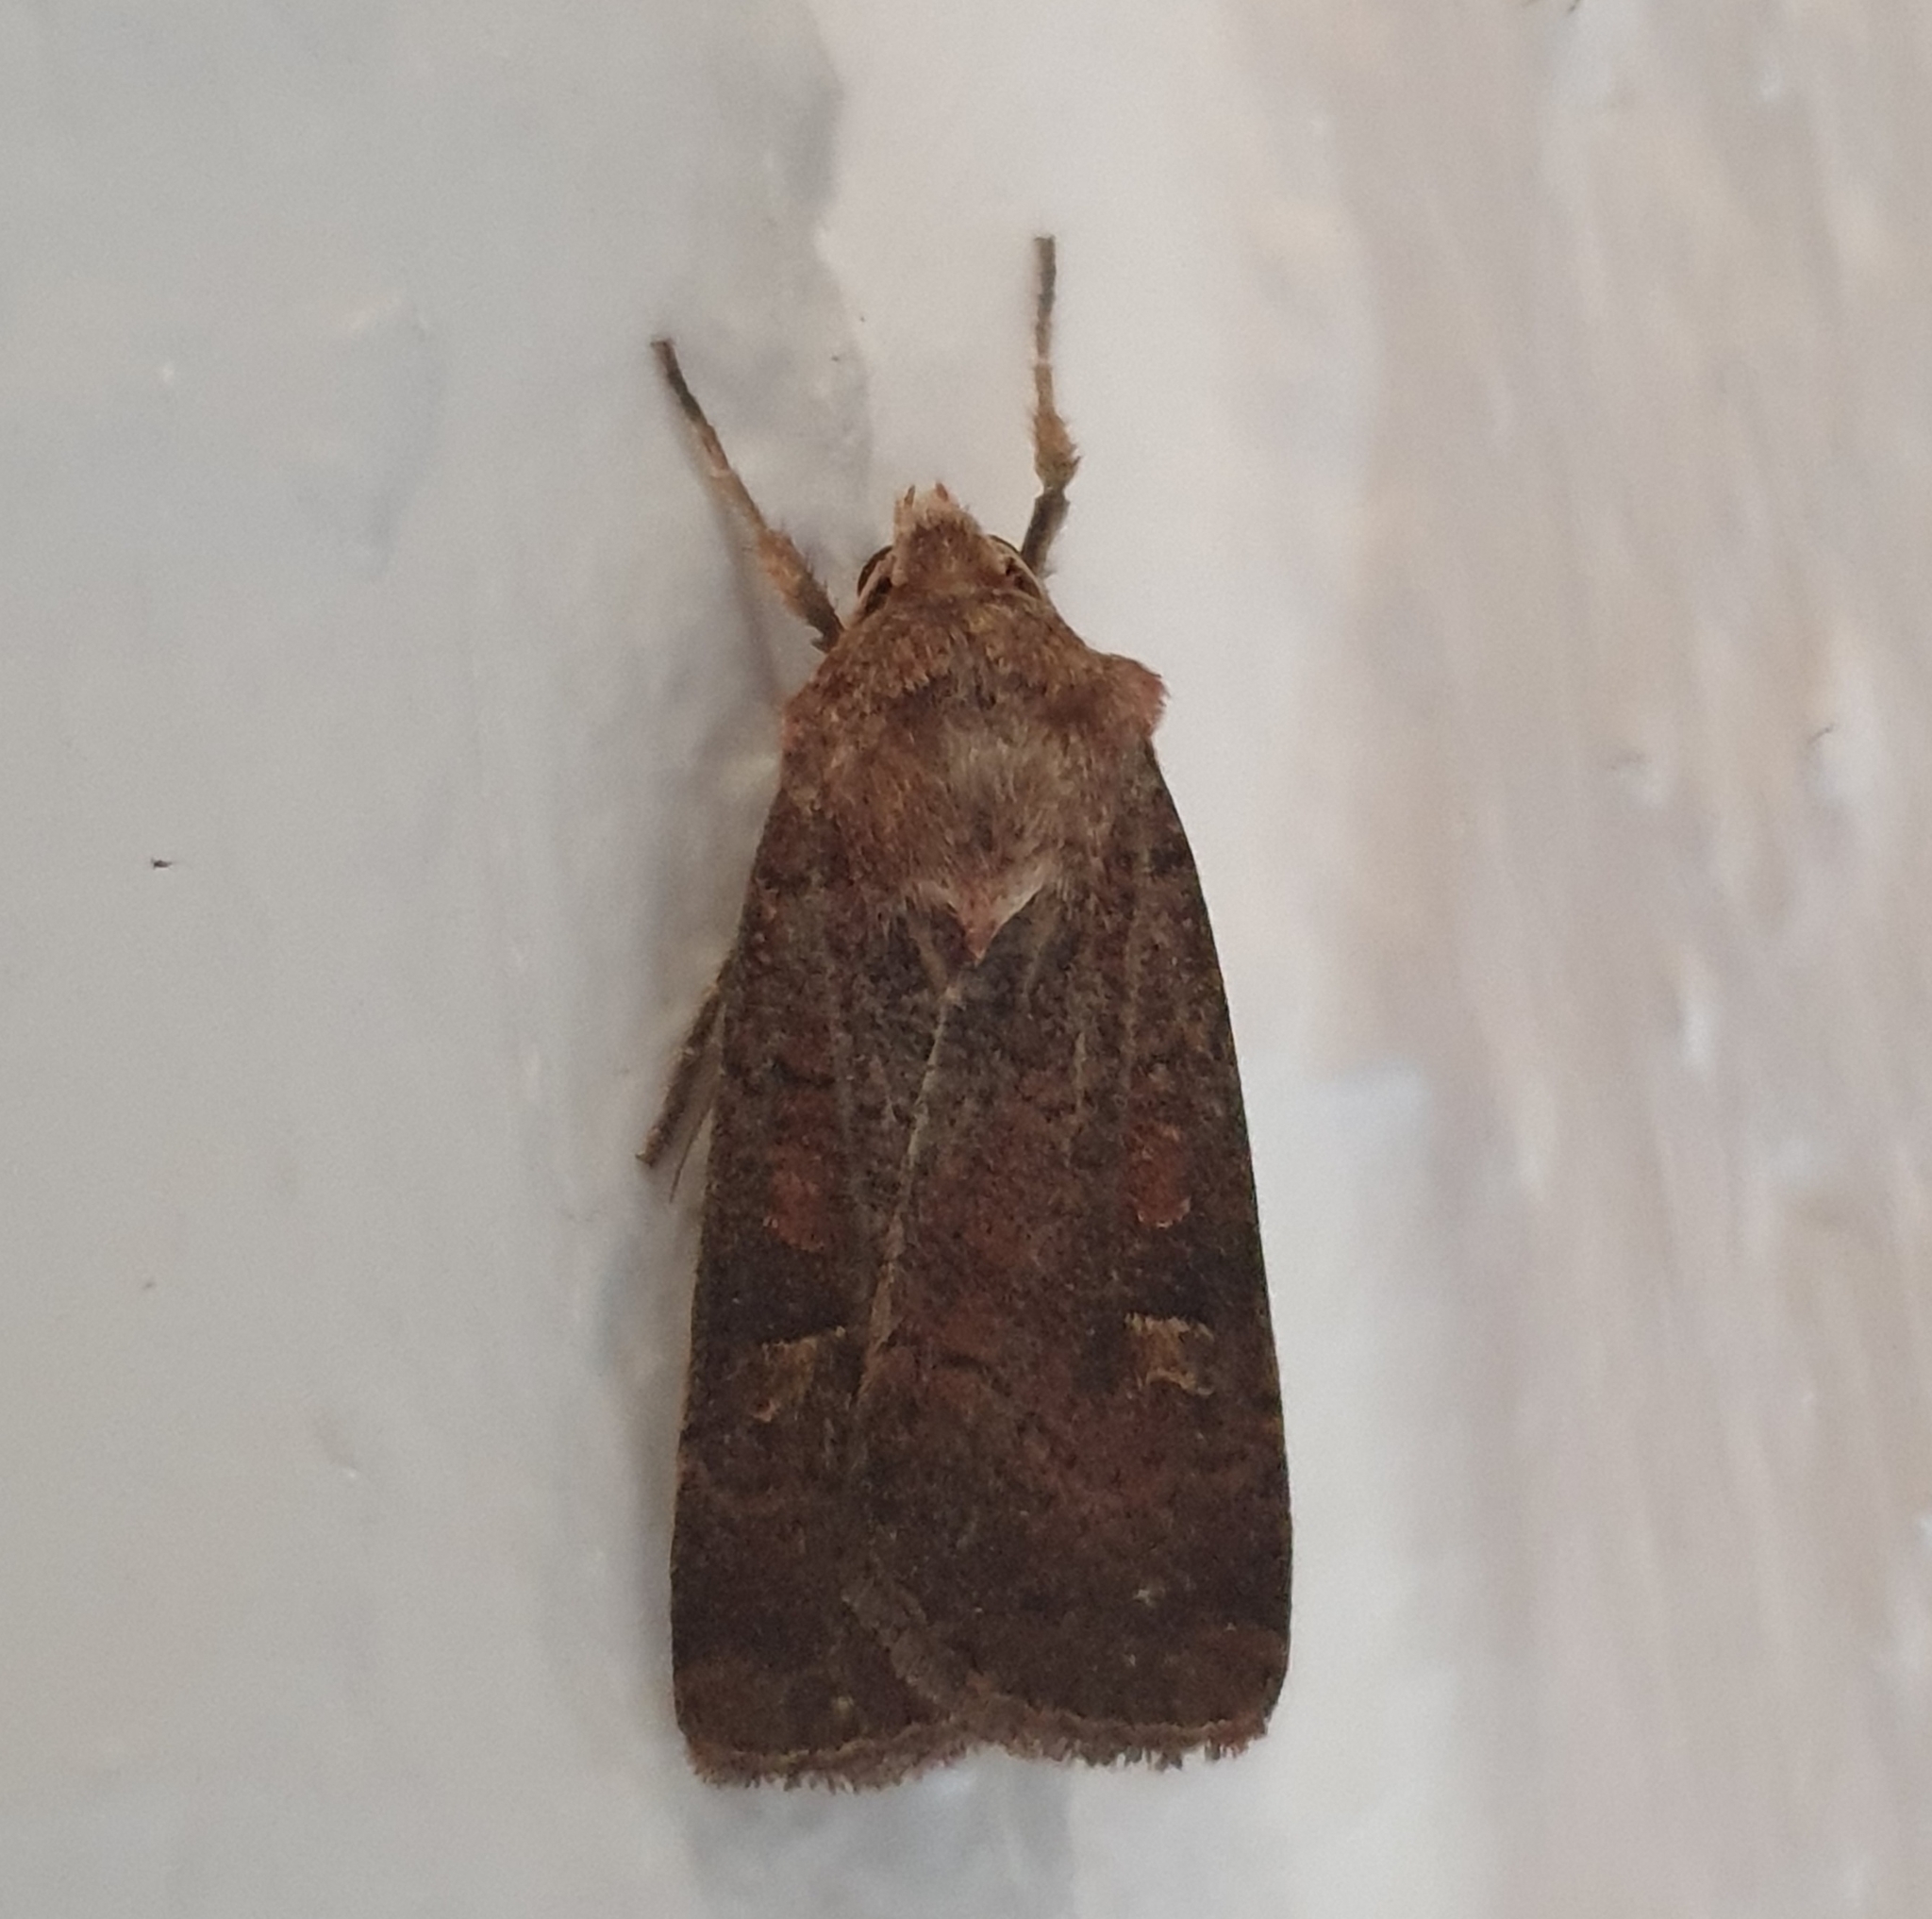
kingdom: Animalia
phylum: Arthropoda
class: Insecta
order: Lepidoptera
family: Noctuidae
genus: Xestia
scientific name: Xestia xanthographa
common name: Square-spot rustic
